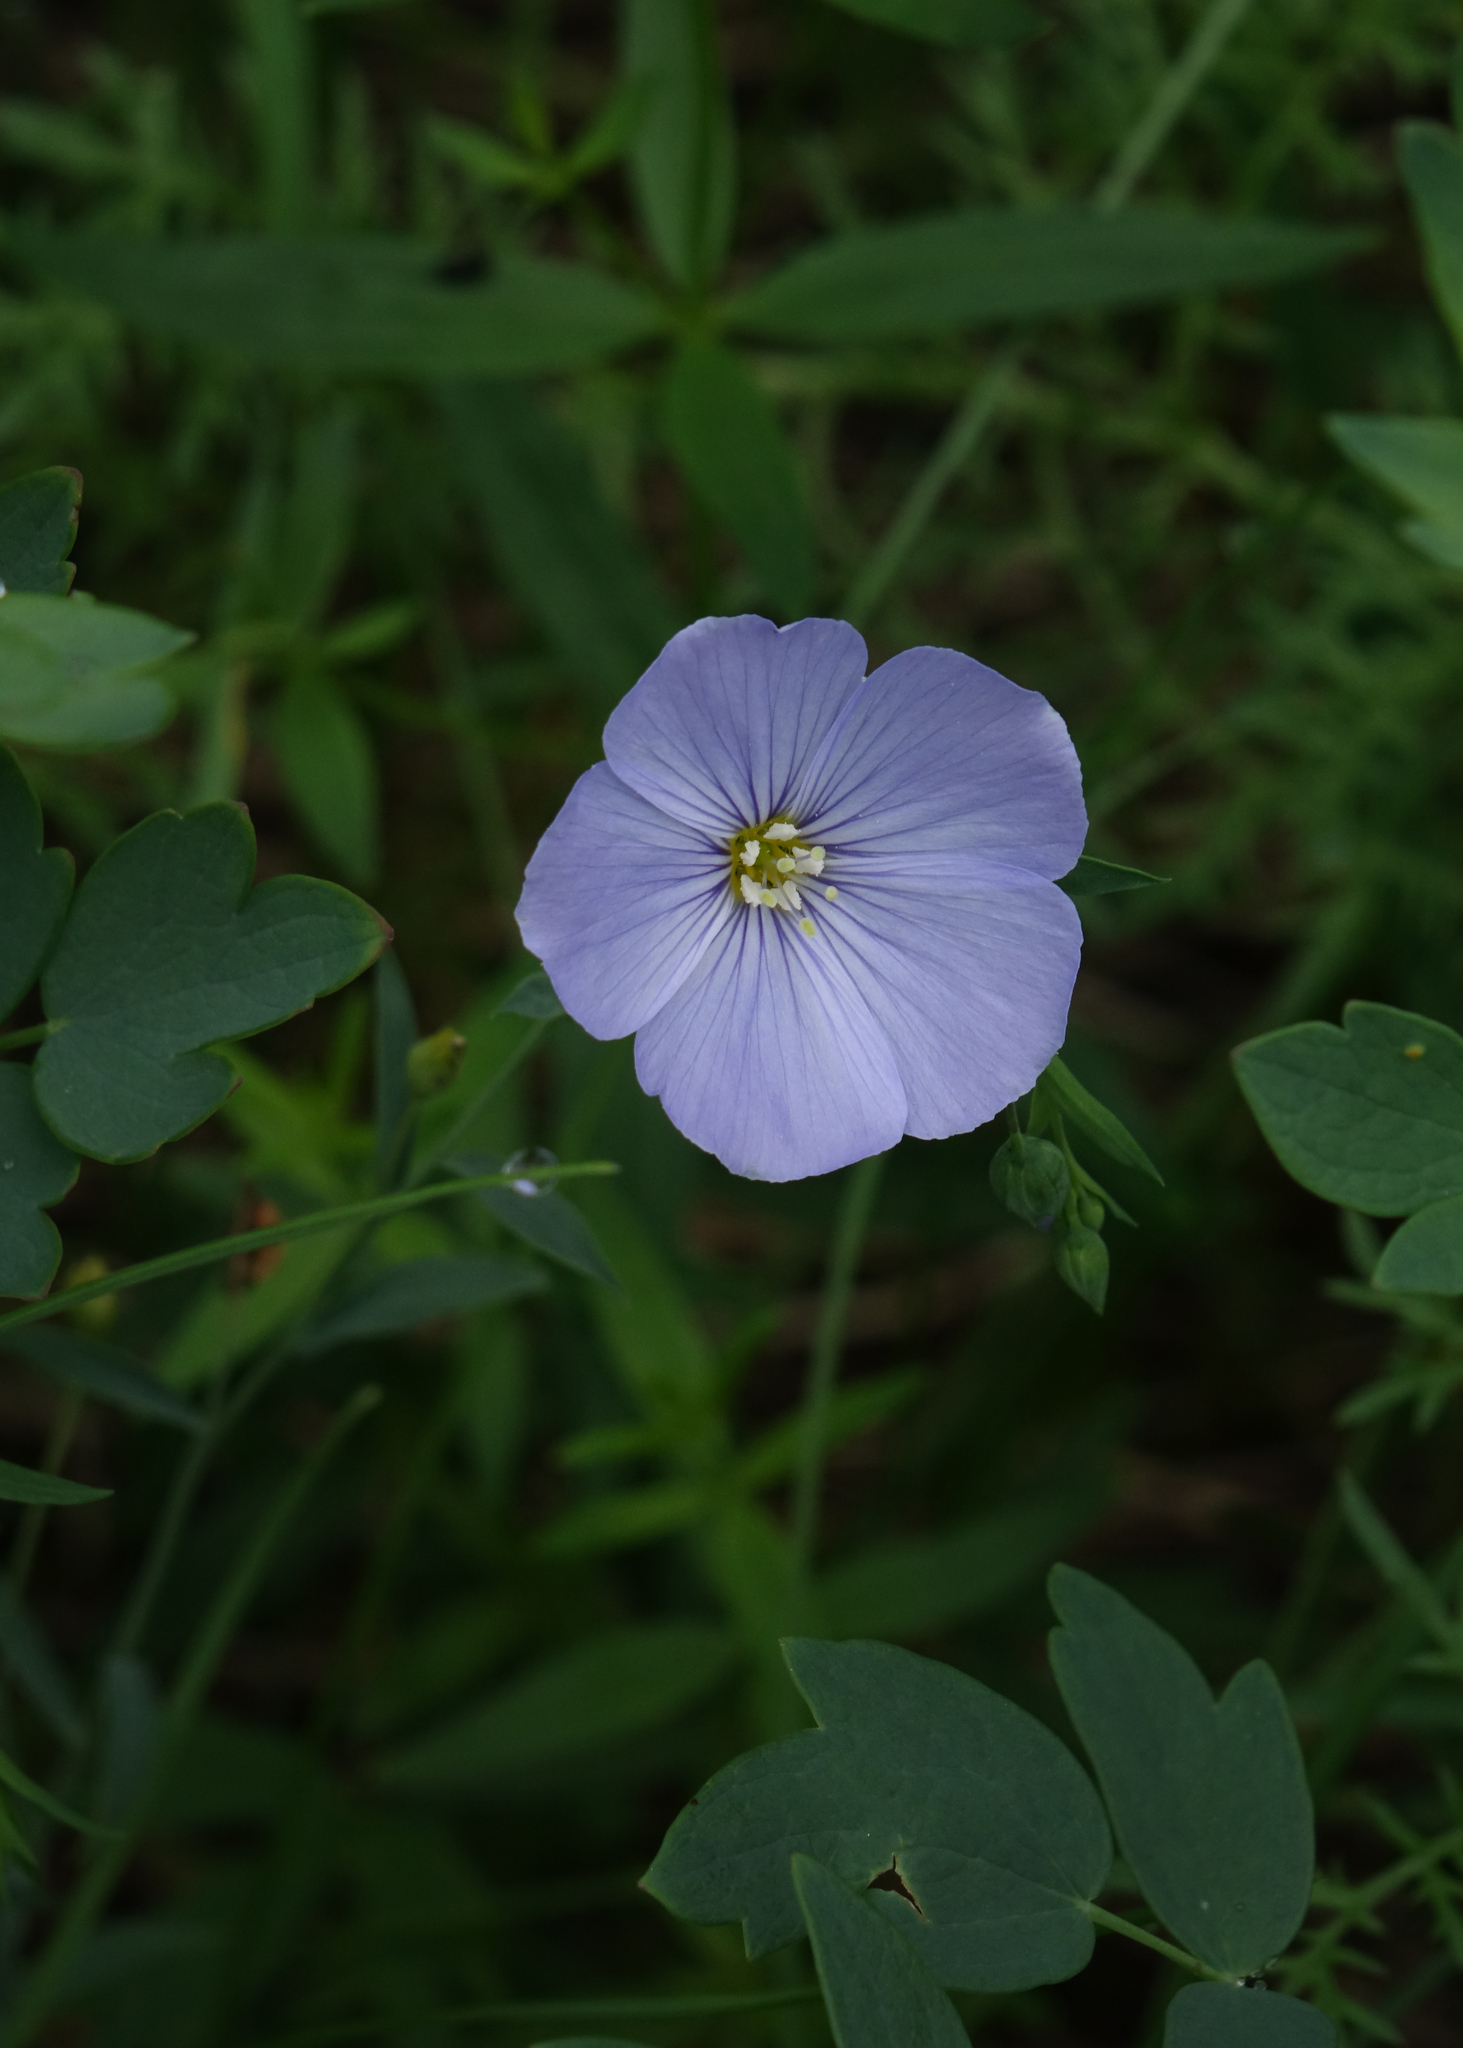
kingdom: Plantae
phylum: Tracheophyta
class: Magnoliopsida
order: Malpighiales
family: Linaceae
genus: Linum
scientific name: Linum komarovii
